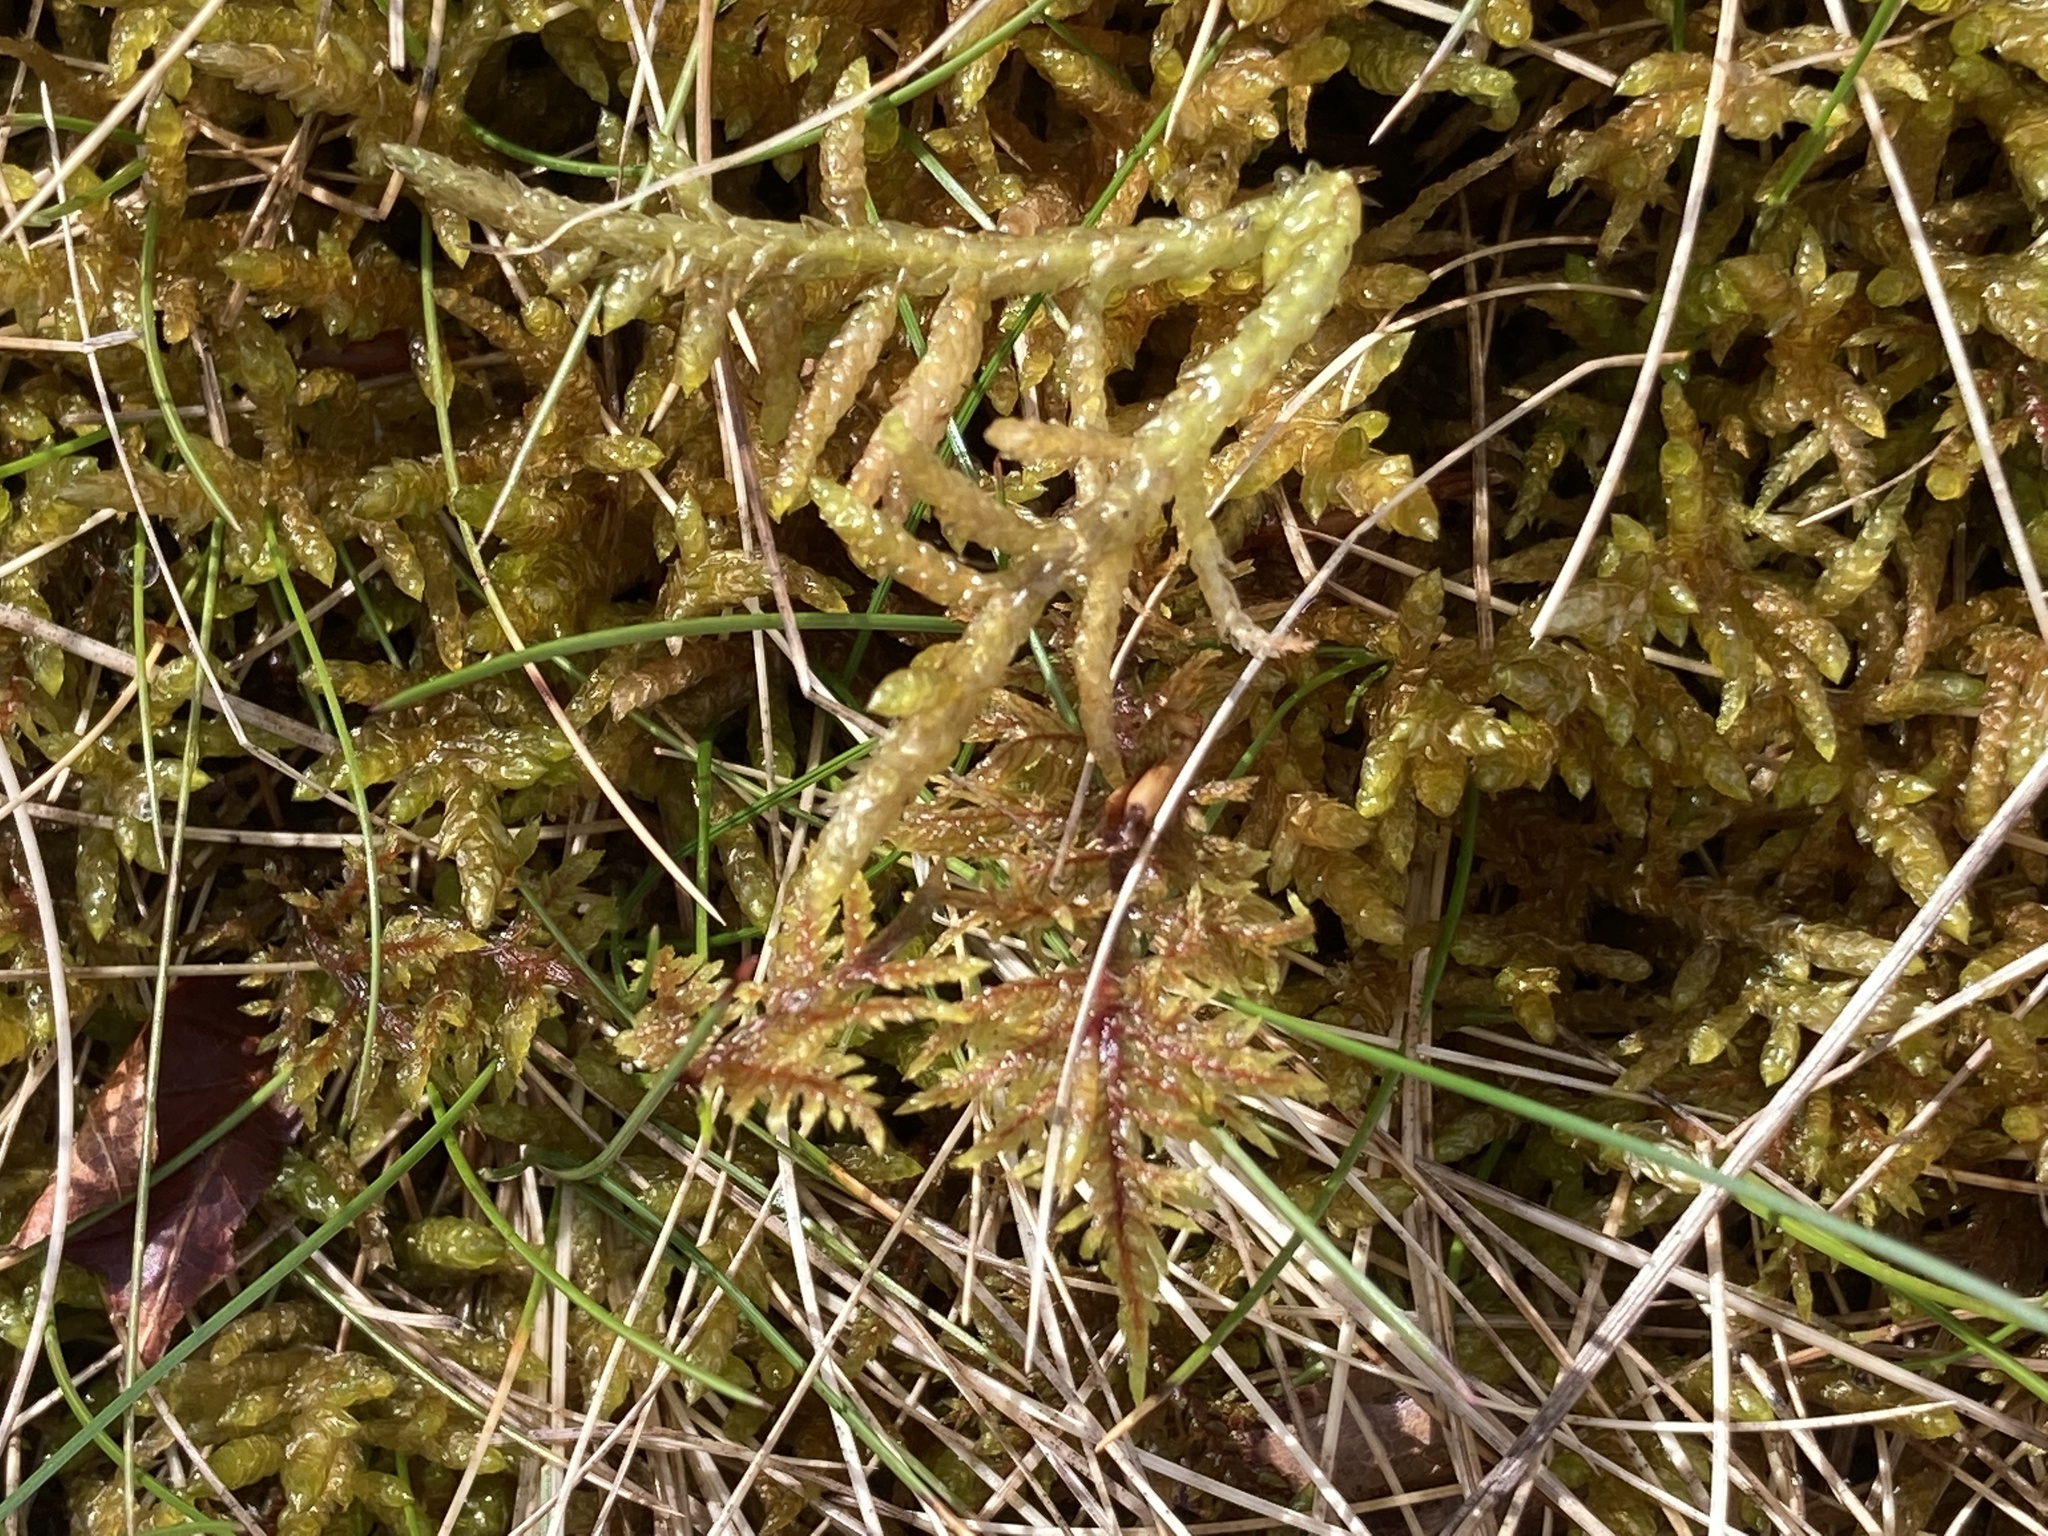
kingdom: Plantae
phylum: Bryophyta
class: Bryopsida
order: Hypnales
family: Hylocomiaceae
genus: Hylocomium
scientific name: Hylocomium splendens
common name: Stairstep moss
